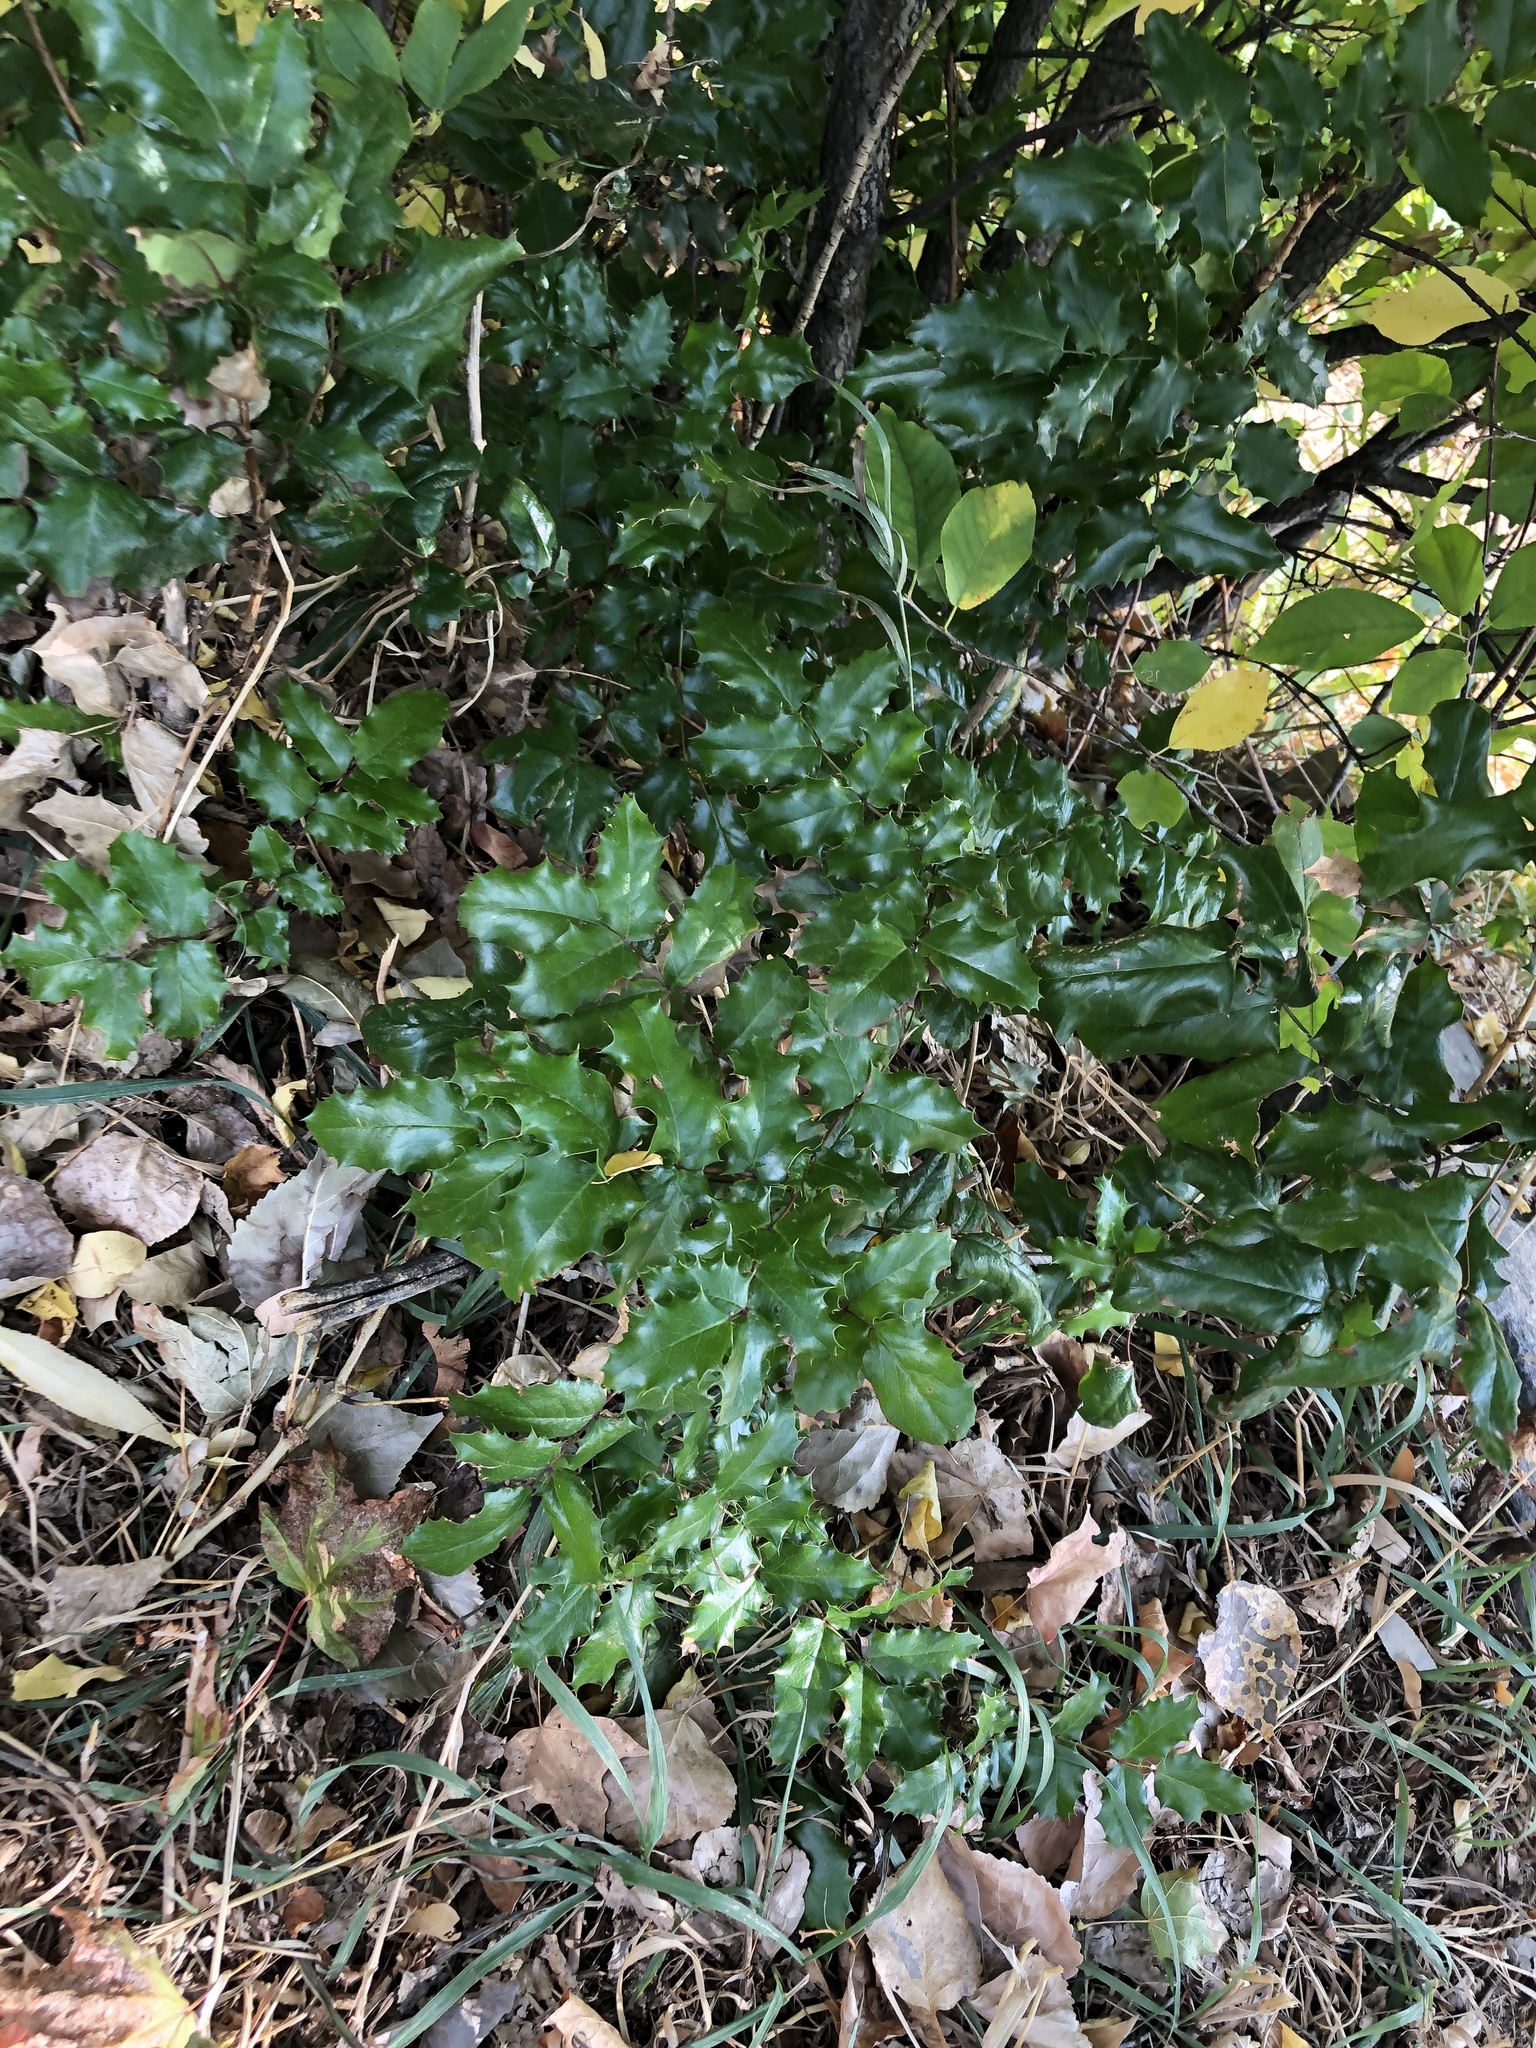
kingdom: Plantae
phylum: Tracheophyta
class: Magnoliopsida
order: Ranunculales
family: Berberidaceae
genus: Mahonia
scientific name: Mahonia aquifolium
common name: Oregon-grape
